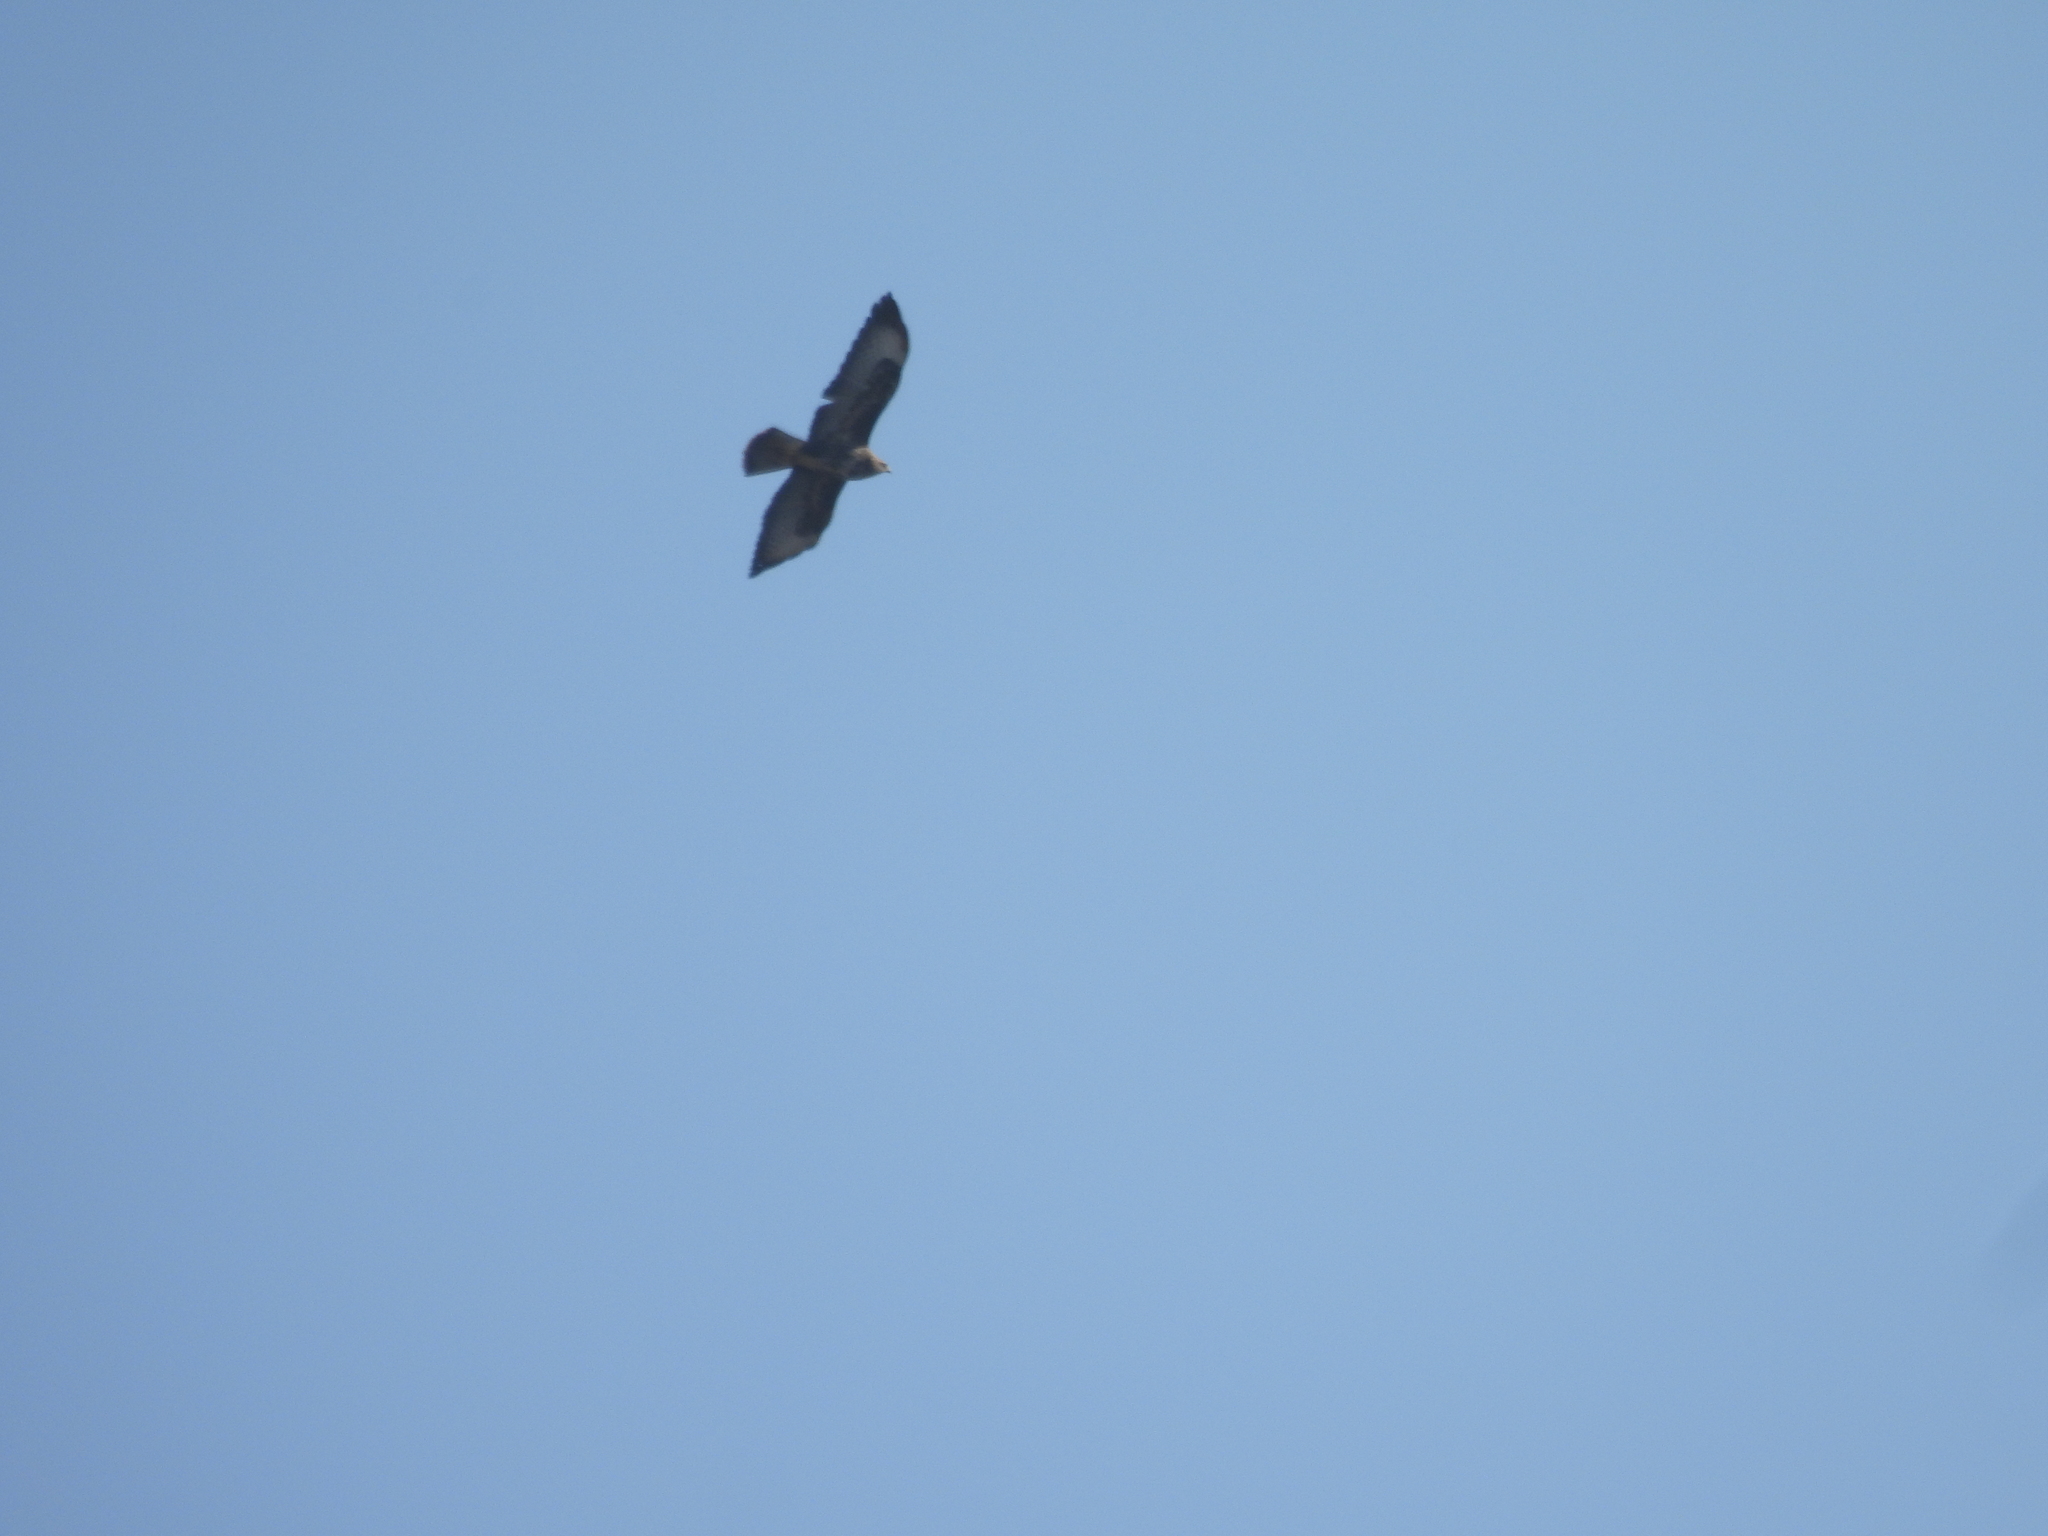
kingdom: Animalia
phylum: Chordata
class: Aves
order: Accipitriformes
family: Accipitridae
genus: Buteo
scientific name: Buteo buteo
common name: Common buzzard
